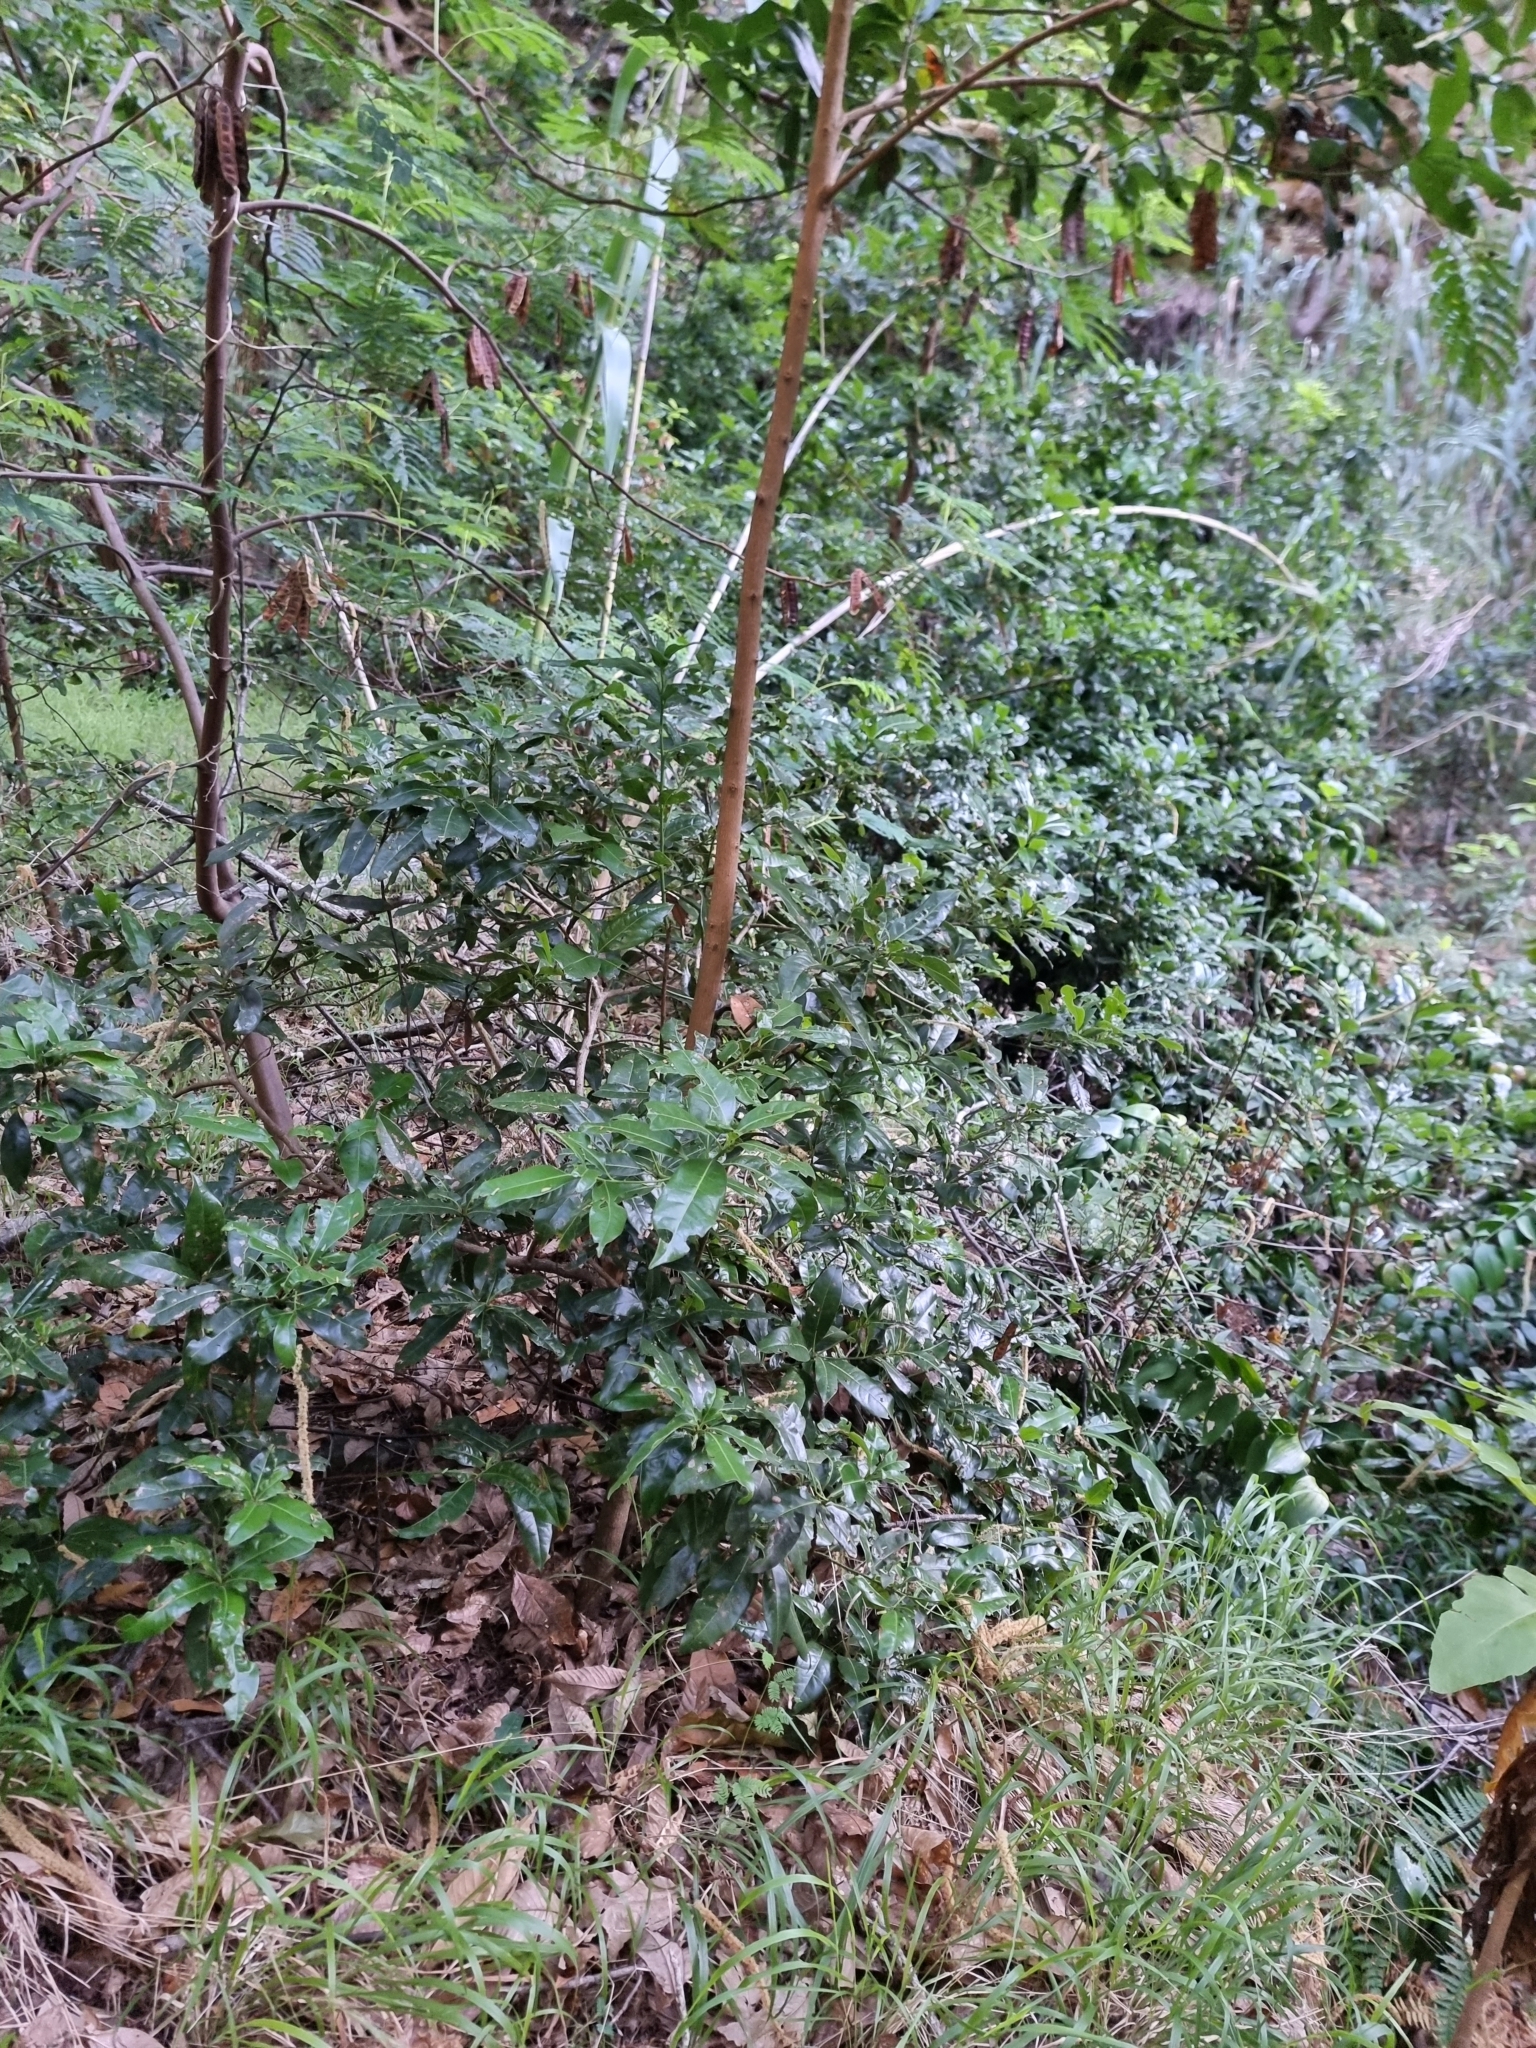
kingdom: Plantae
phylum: Tracheophyta
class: Magnoliopsida
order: Laurales
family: Lauraceae
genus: Apollonias
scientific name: Apollonias barbujana
